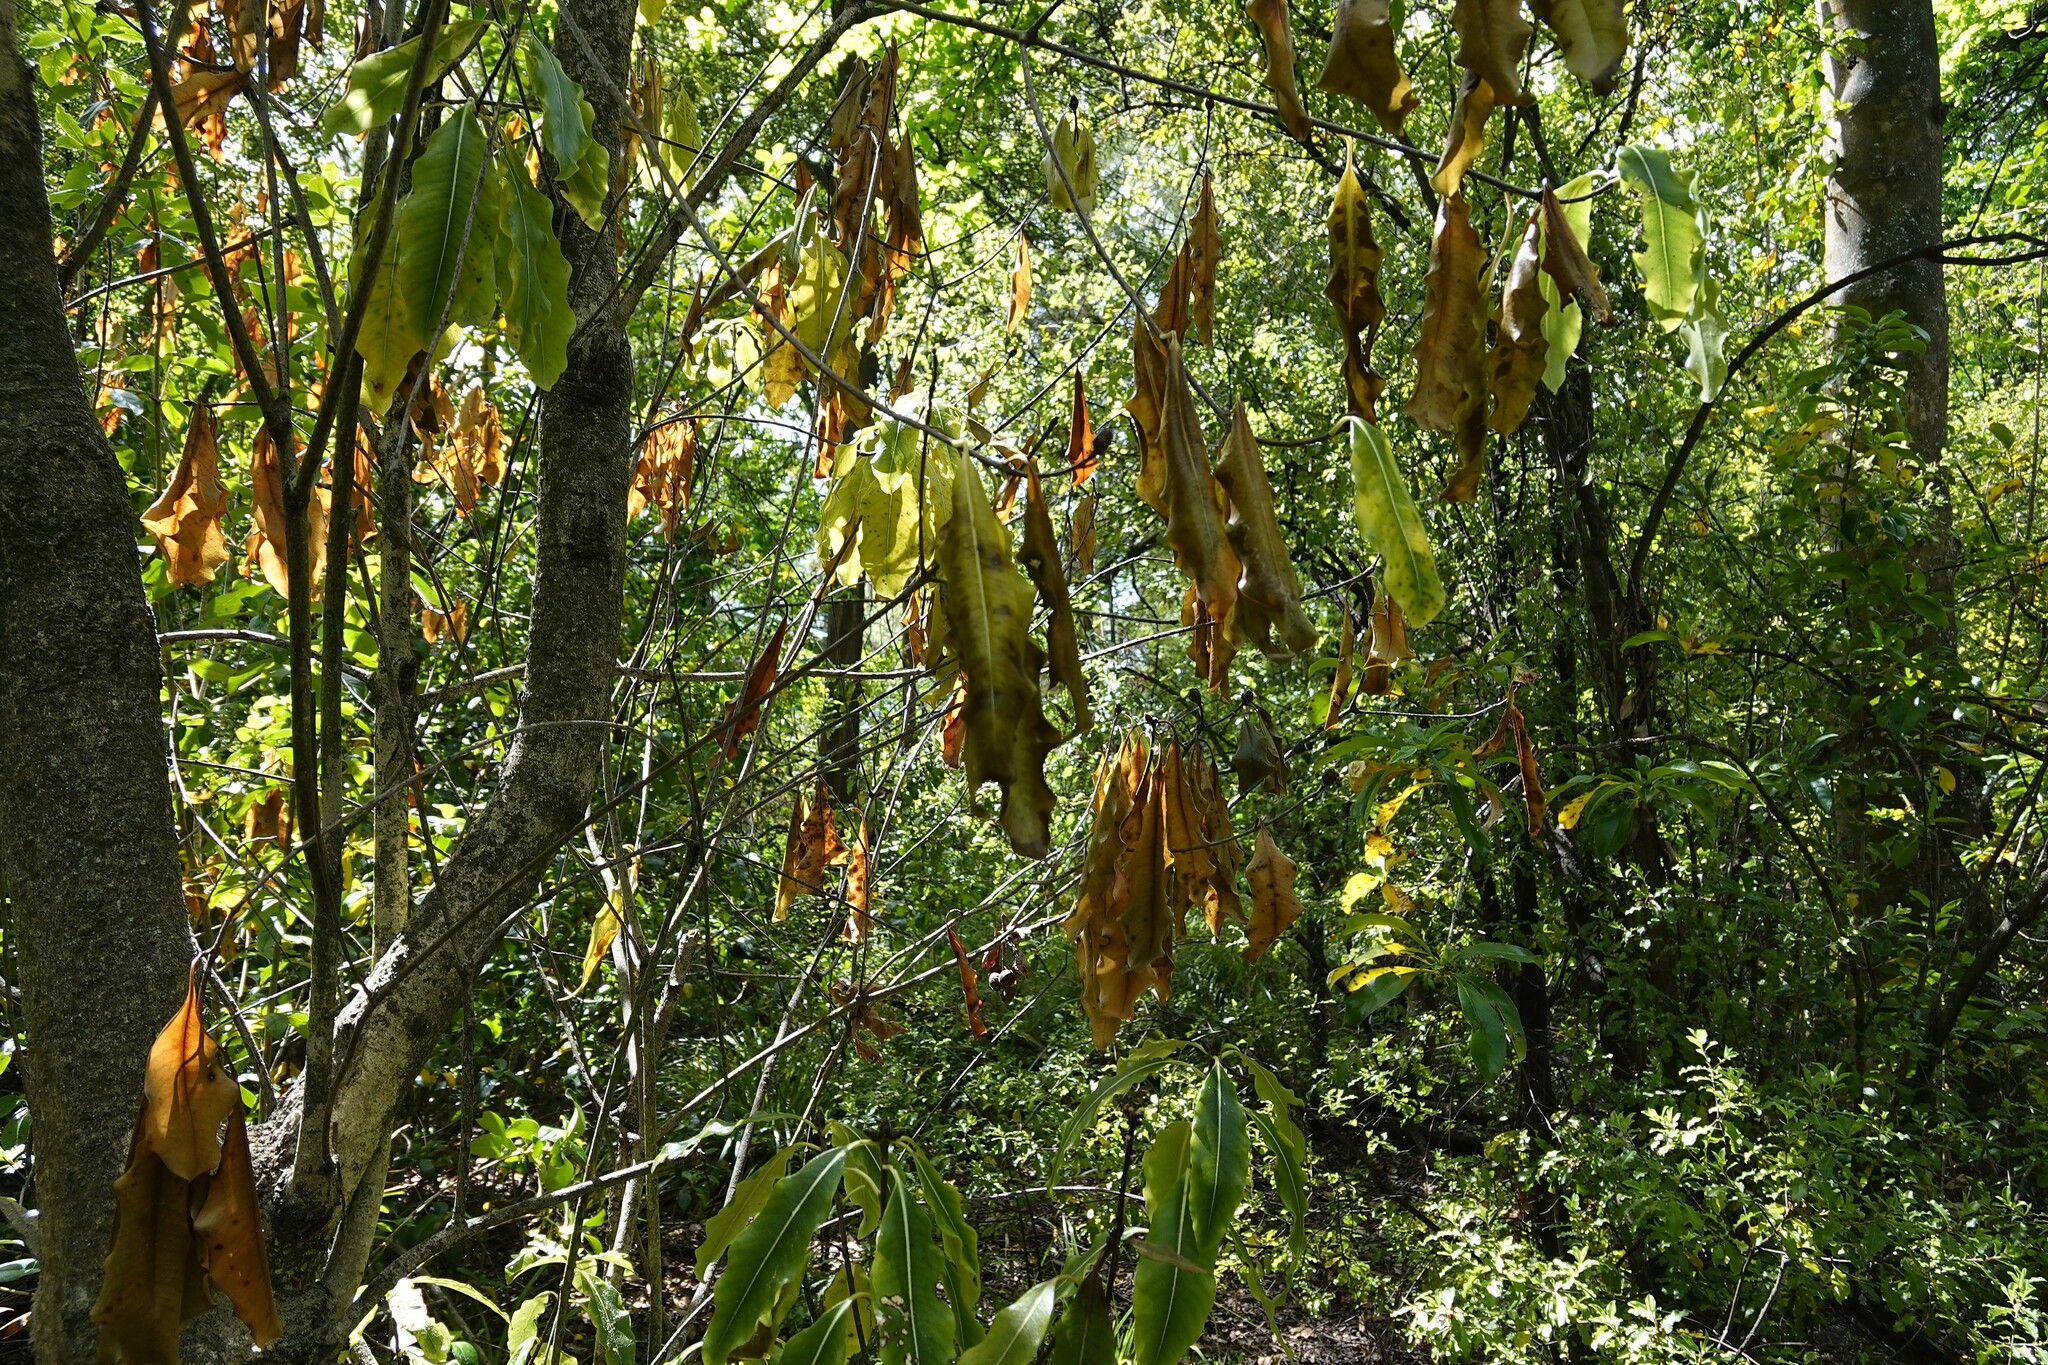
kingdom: Plantae
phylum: Tracheophyta
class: Magnoliopsida
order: Apiales
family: Pittosporaceae
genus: Pittosporum
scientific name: Pittosporum eugenioides
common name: Lemonwood
